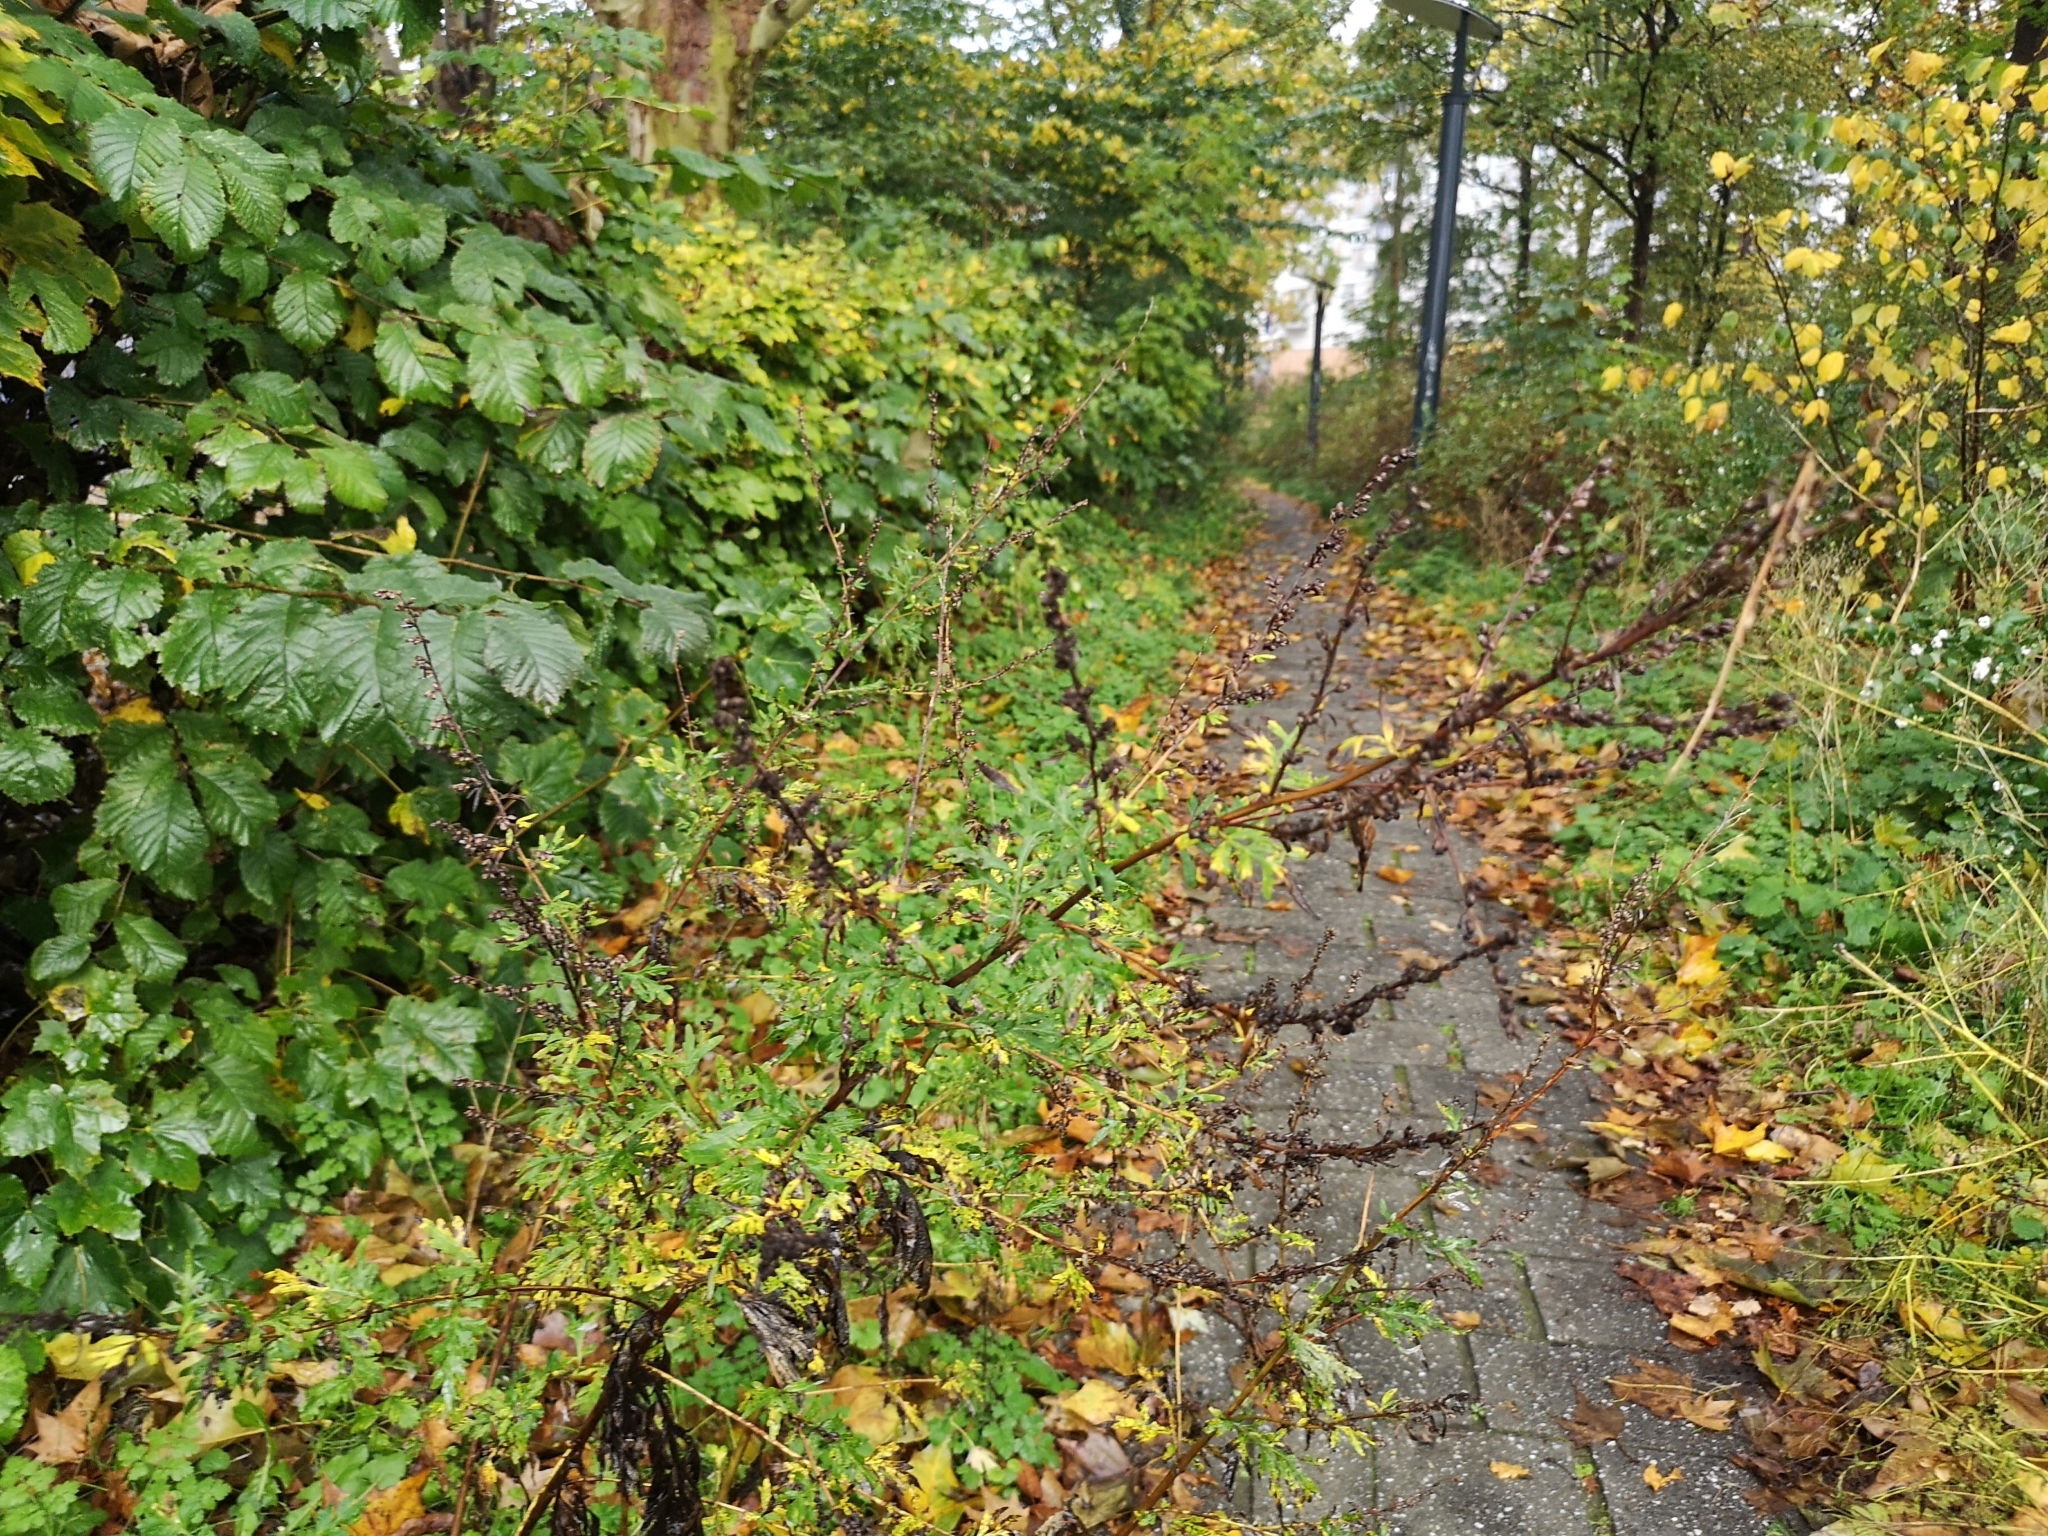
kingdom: Plantae
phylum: Tracheophyta
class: Magnoliopsida
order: Asterales
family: Asteraceae
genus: Artemisia
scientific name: Artemisia vulgaris
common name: Mugwort
